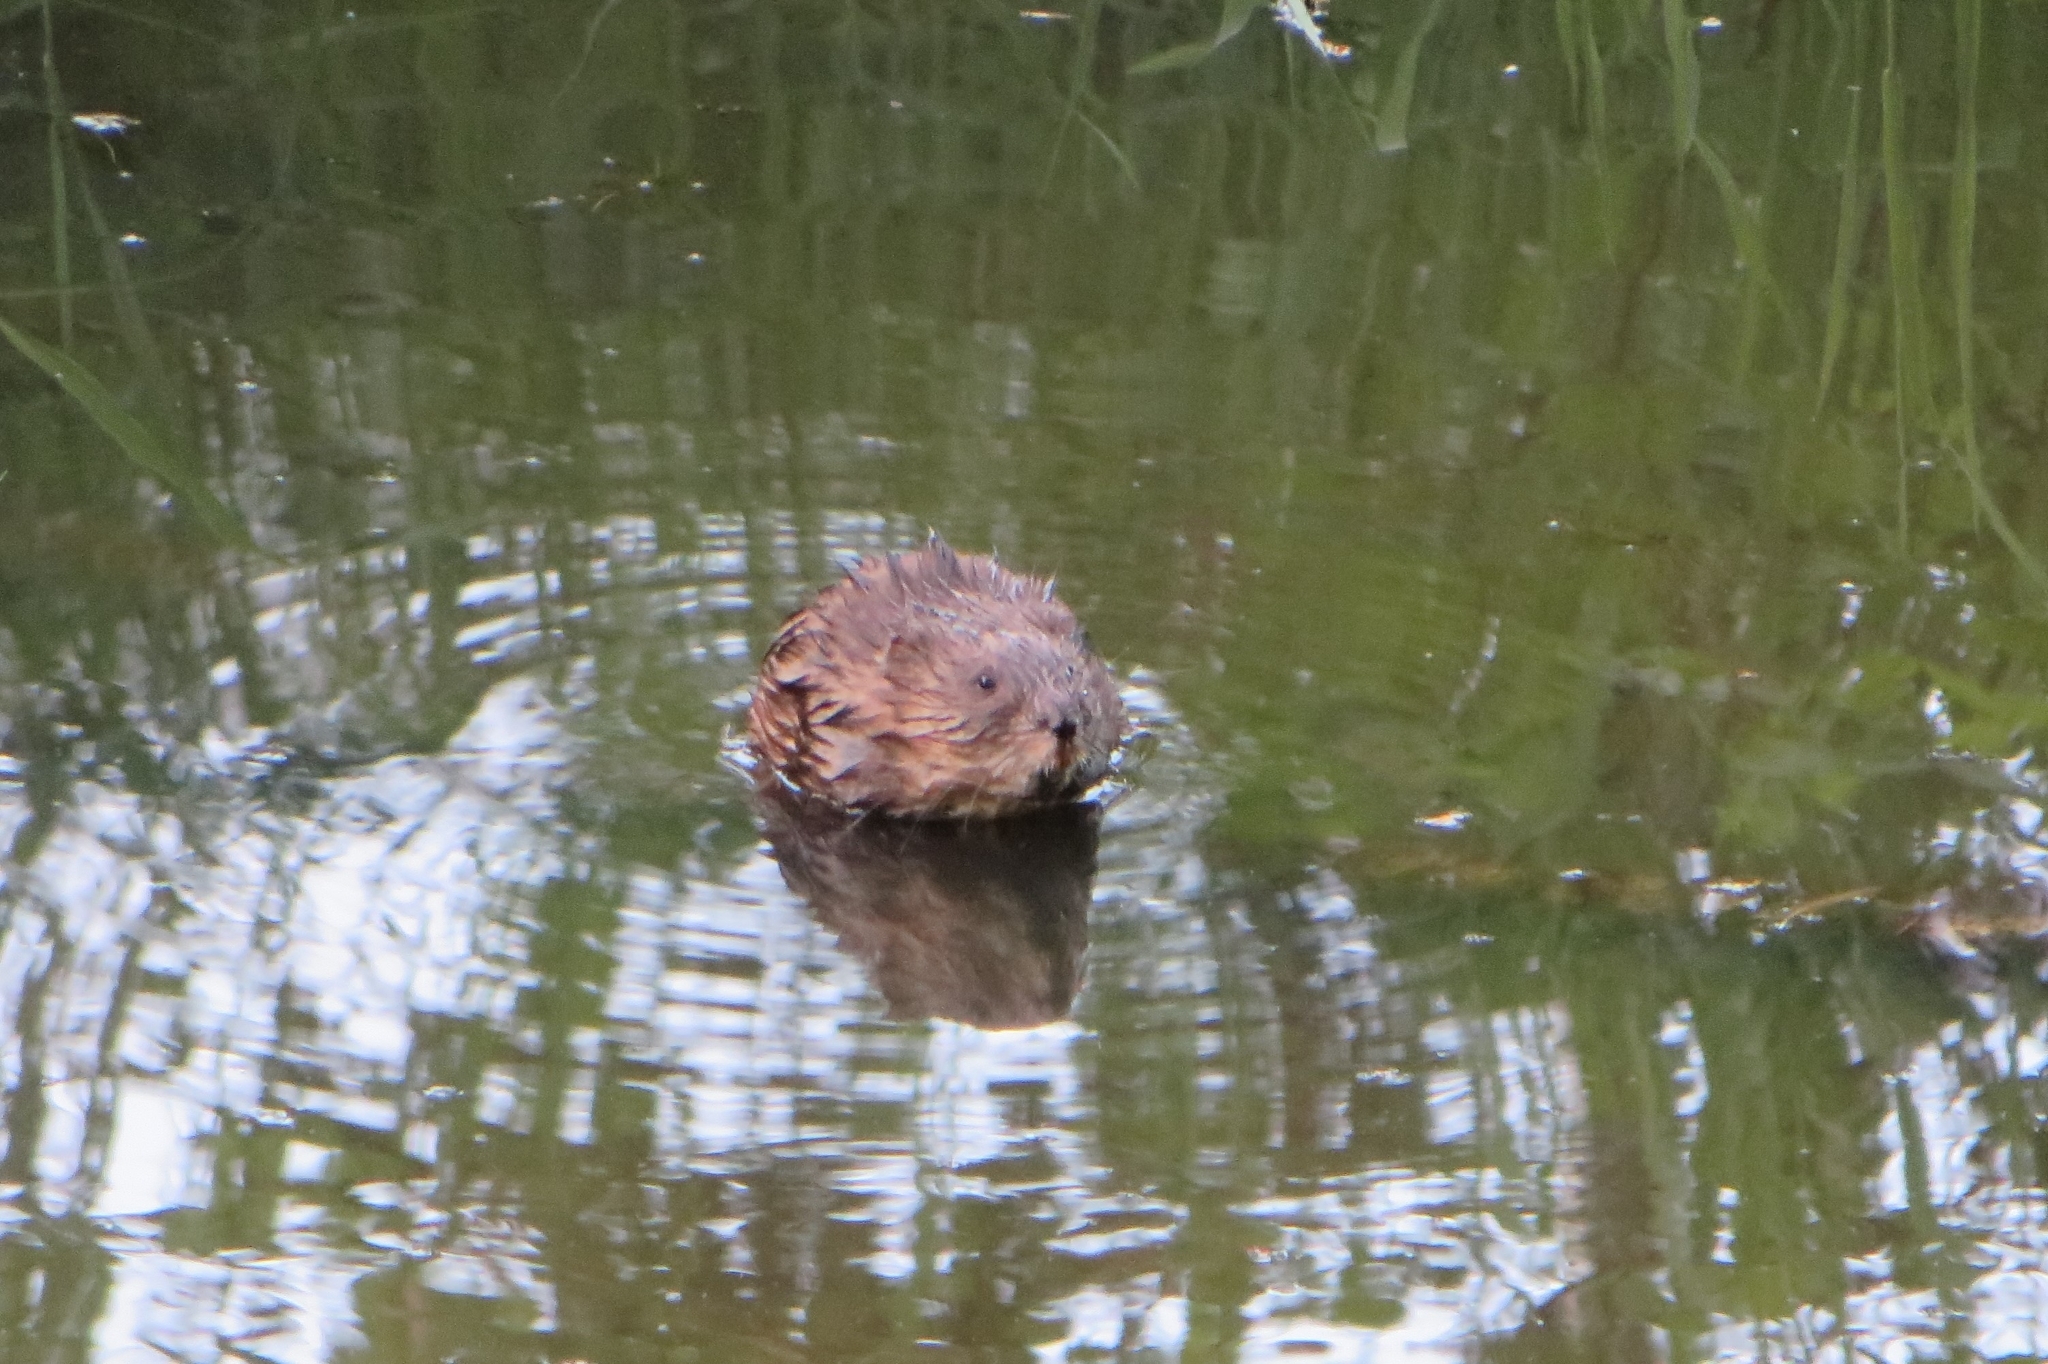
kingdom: Animalia
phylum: Chordata
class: Mammalia
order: Rodentia
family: Cricetidae
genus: Ondatra
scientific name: Ondatra zibethicus
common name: Muskrat
